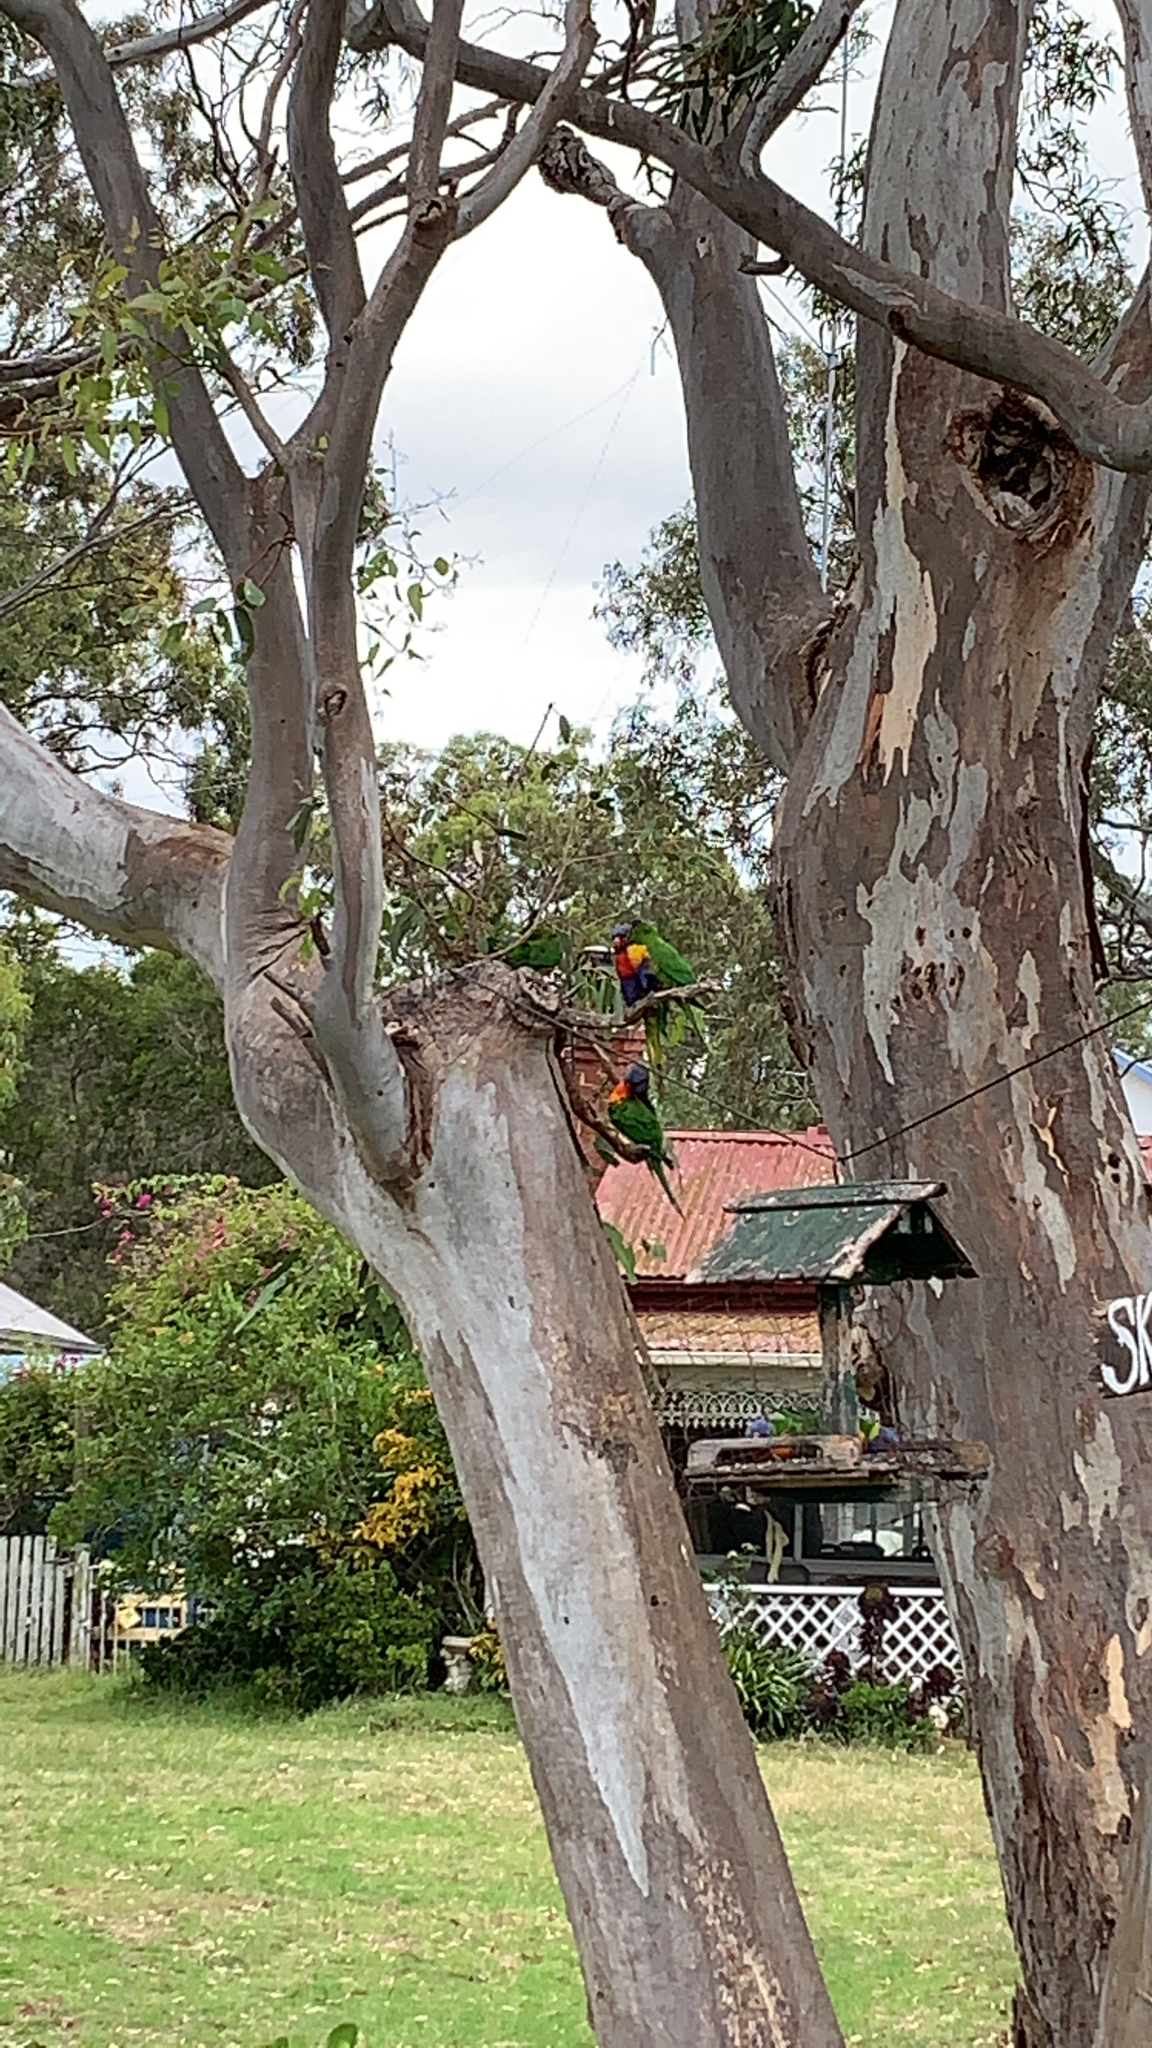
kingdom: Animalia
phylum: Chordata
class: Aves
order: Psittaciformes
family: Psittacidae
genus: Trichoglossus
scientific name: Trichoglossus haematodus
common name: Coconut lorikeet
